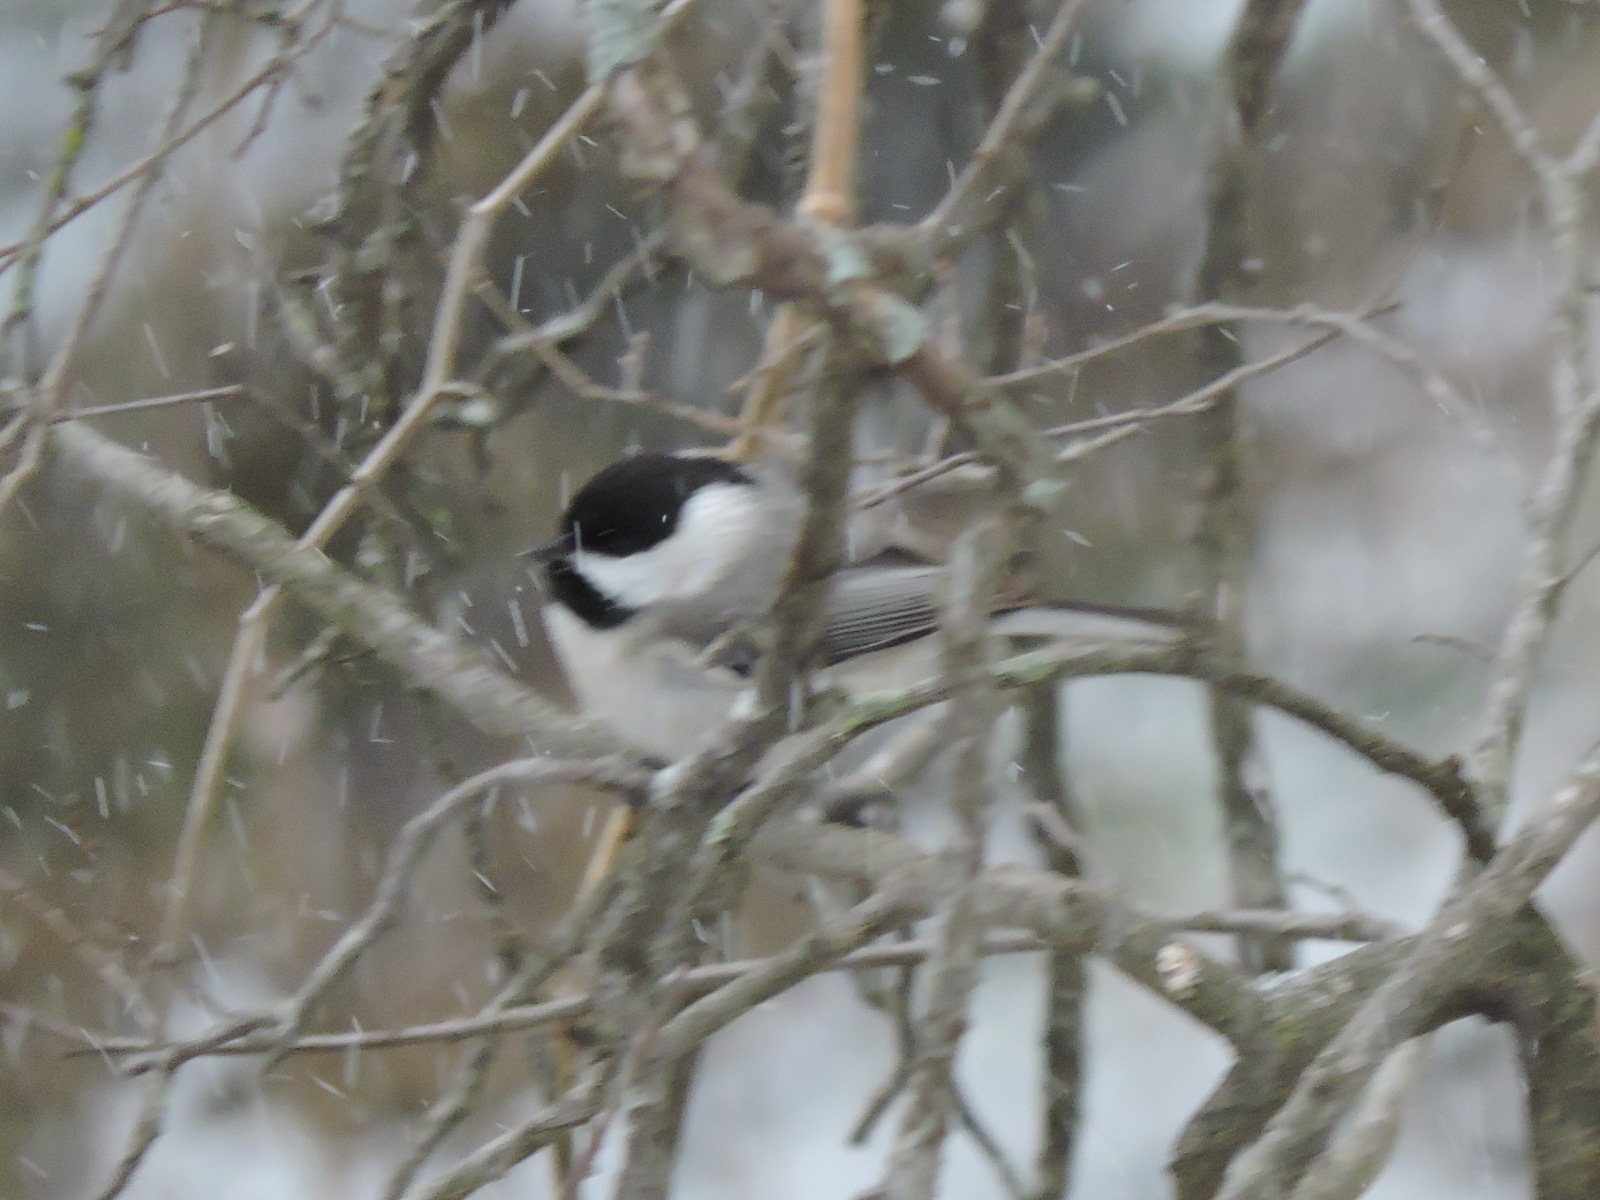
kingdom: Animalia
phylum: Chordata
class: Aves
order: Passeriformes
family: Paridae
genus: Poecile
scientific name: Poecile carolinensis
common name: Carolina chickadee
